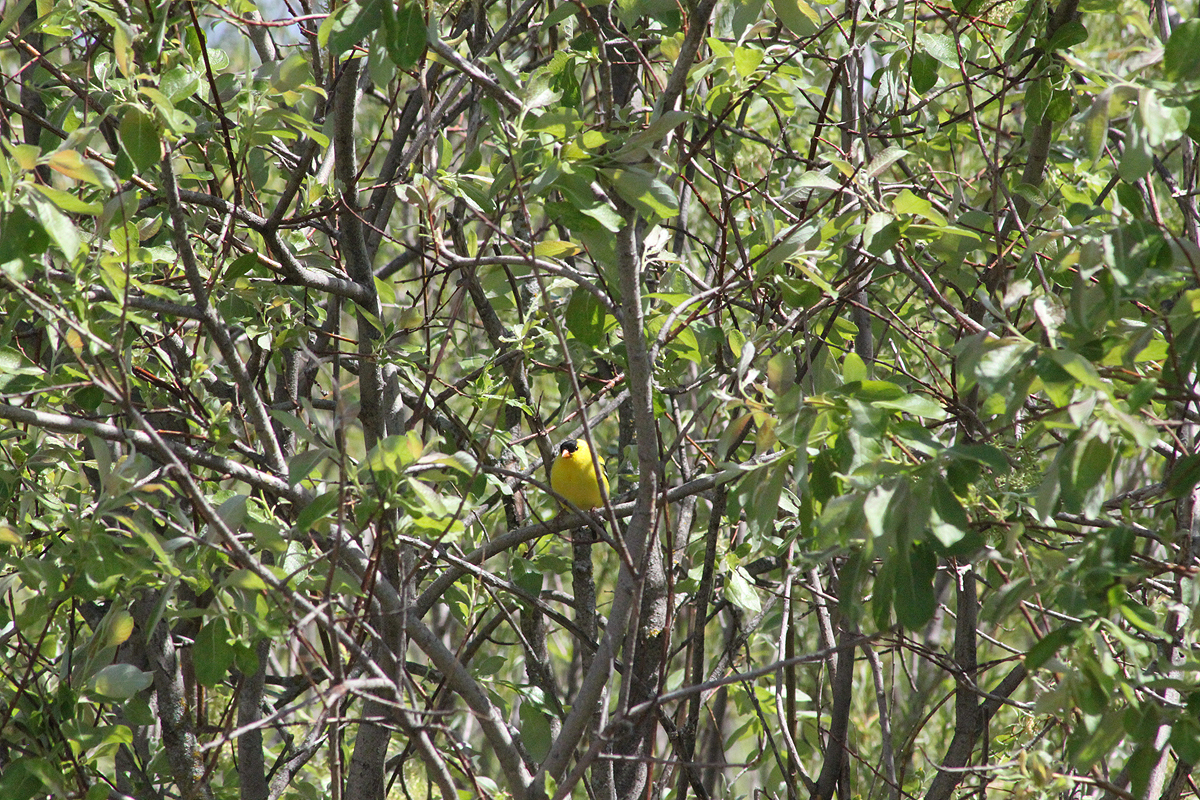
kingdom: Animalia
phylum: Chordata
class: Aves
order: Passeriformes
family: Fringillidae
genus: Spinus
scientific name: Spinus tristis
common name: American goldfinch
